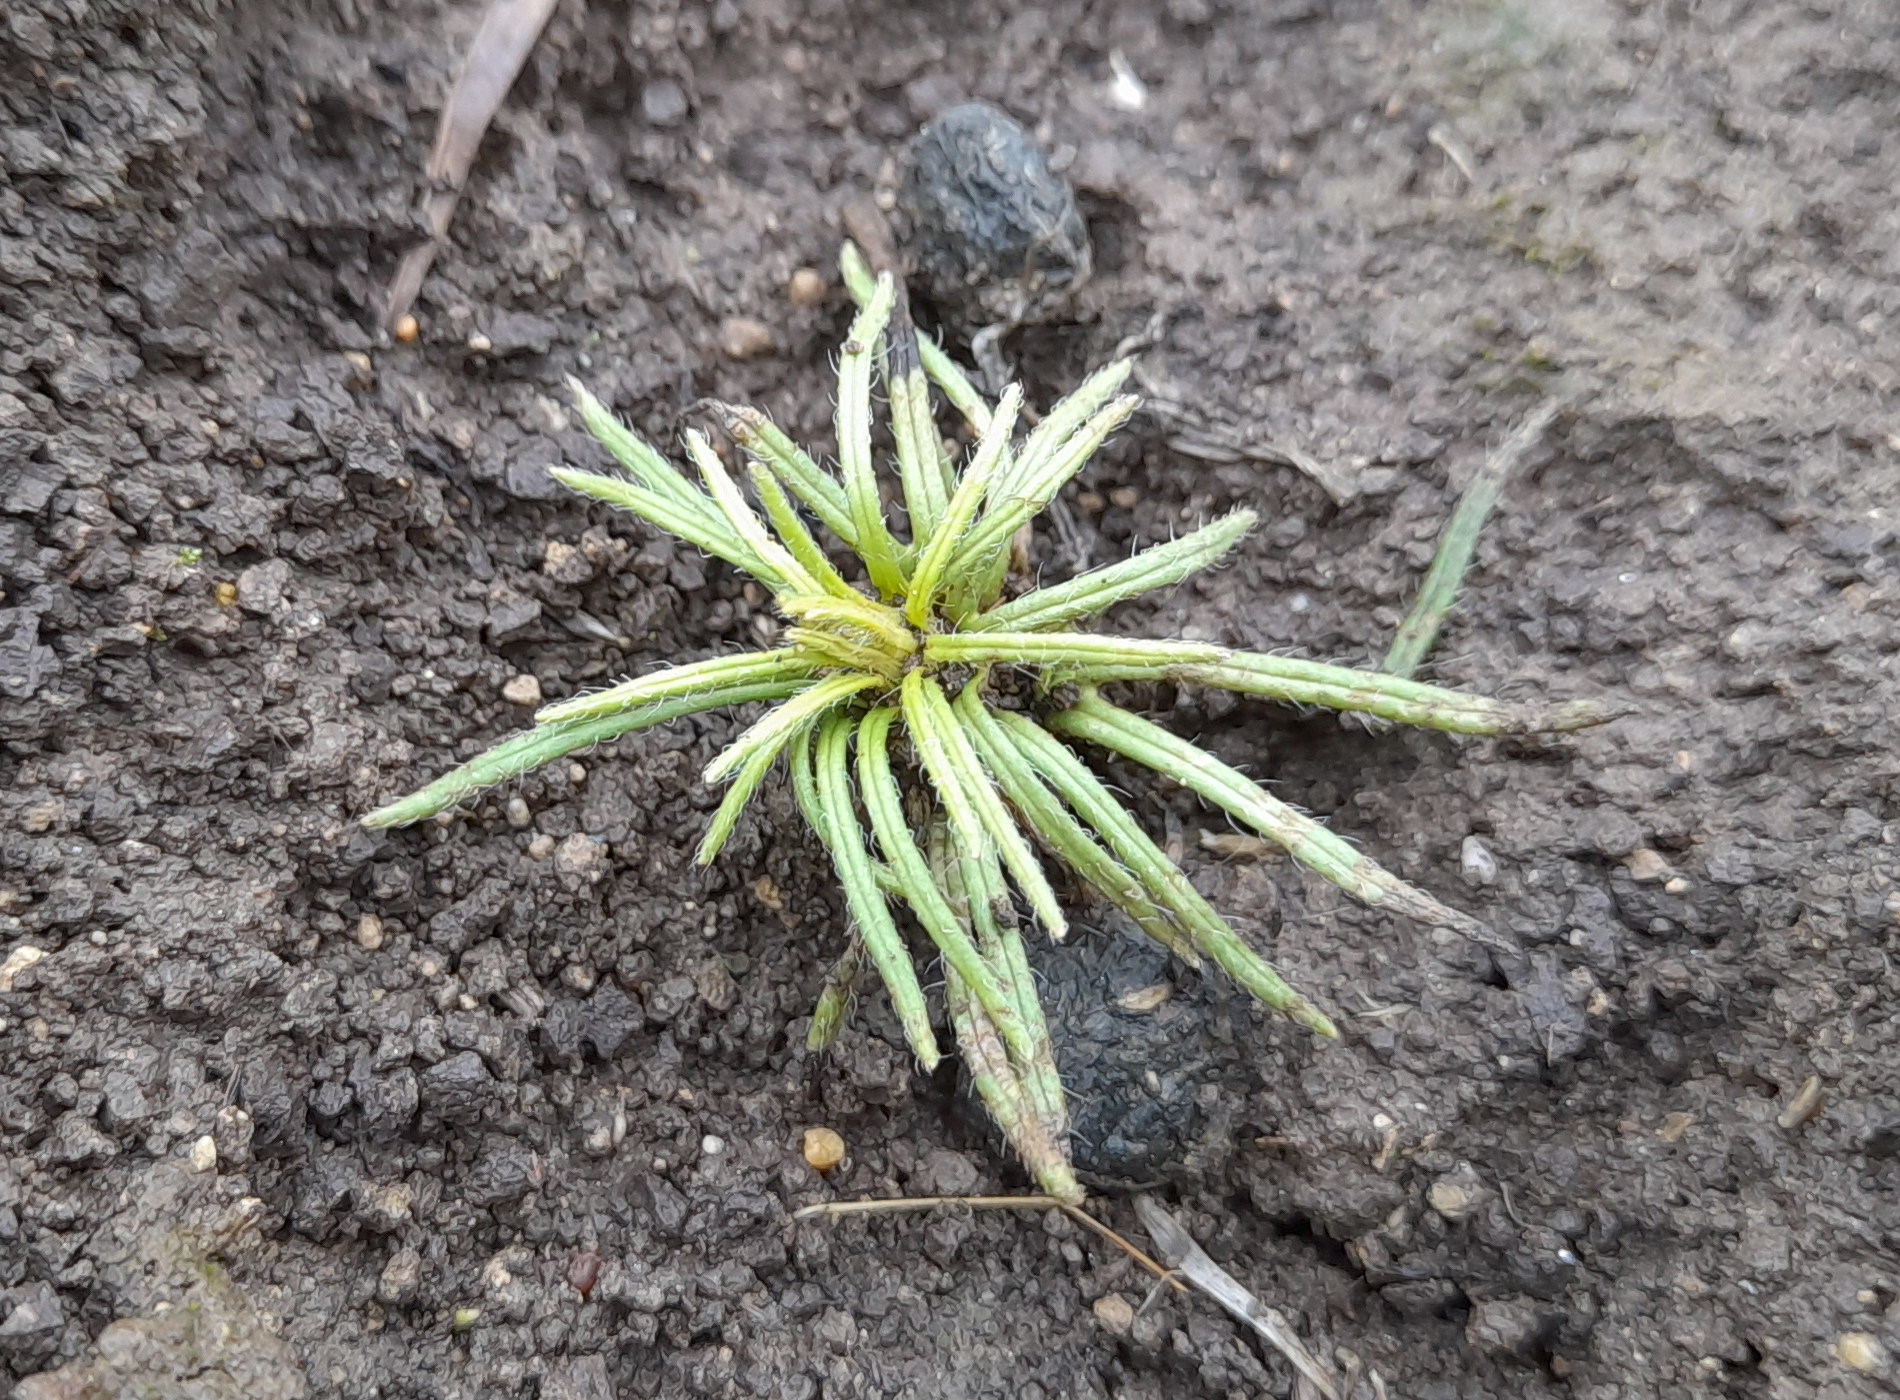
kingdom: Plantae
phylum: Tracheophyta
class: Magnoliopsida
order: Lamiales
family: Lamiaceae
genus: Ajuga
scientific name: Ajuga chamaepitys
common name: Ground-pine
